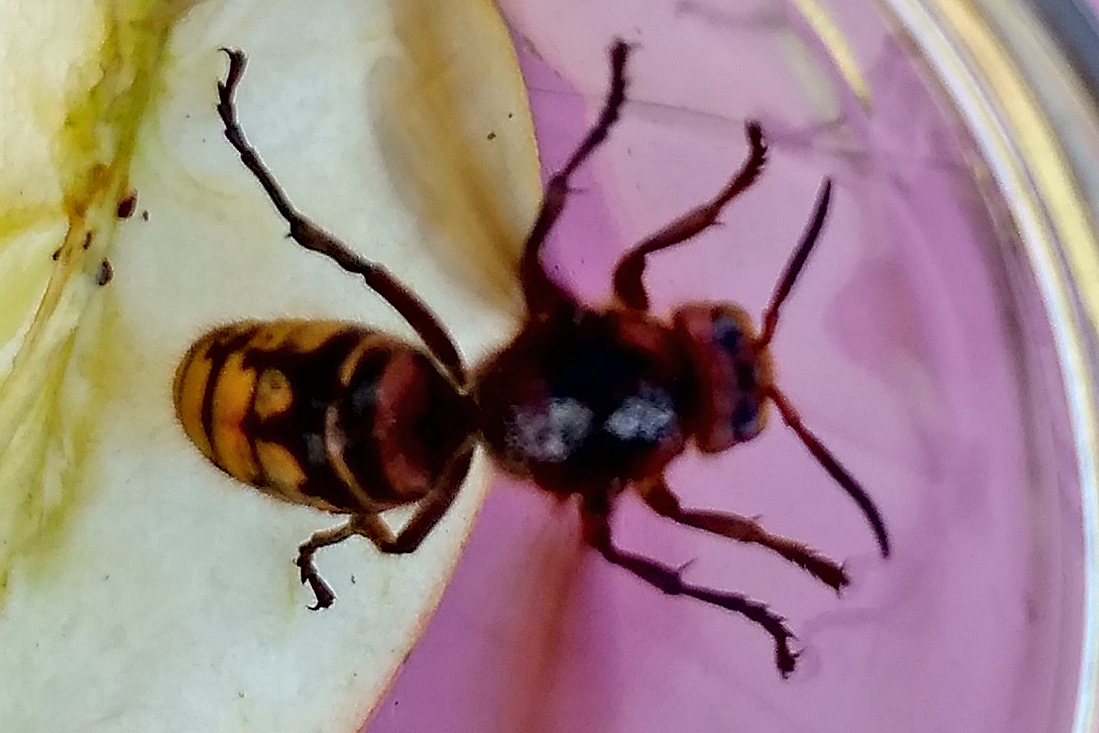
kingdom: Animalia
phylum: Arthropoda
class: Insecta
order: Hymenoptera
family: Vespidae
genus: Vespa
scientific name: Vespa crabro
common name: Hornet
